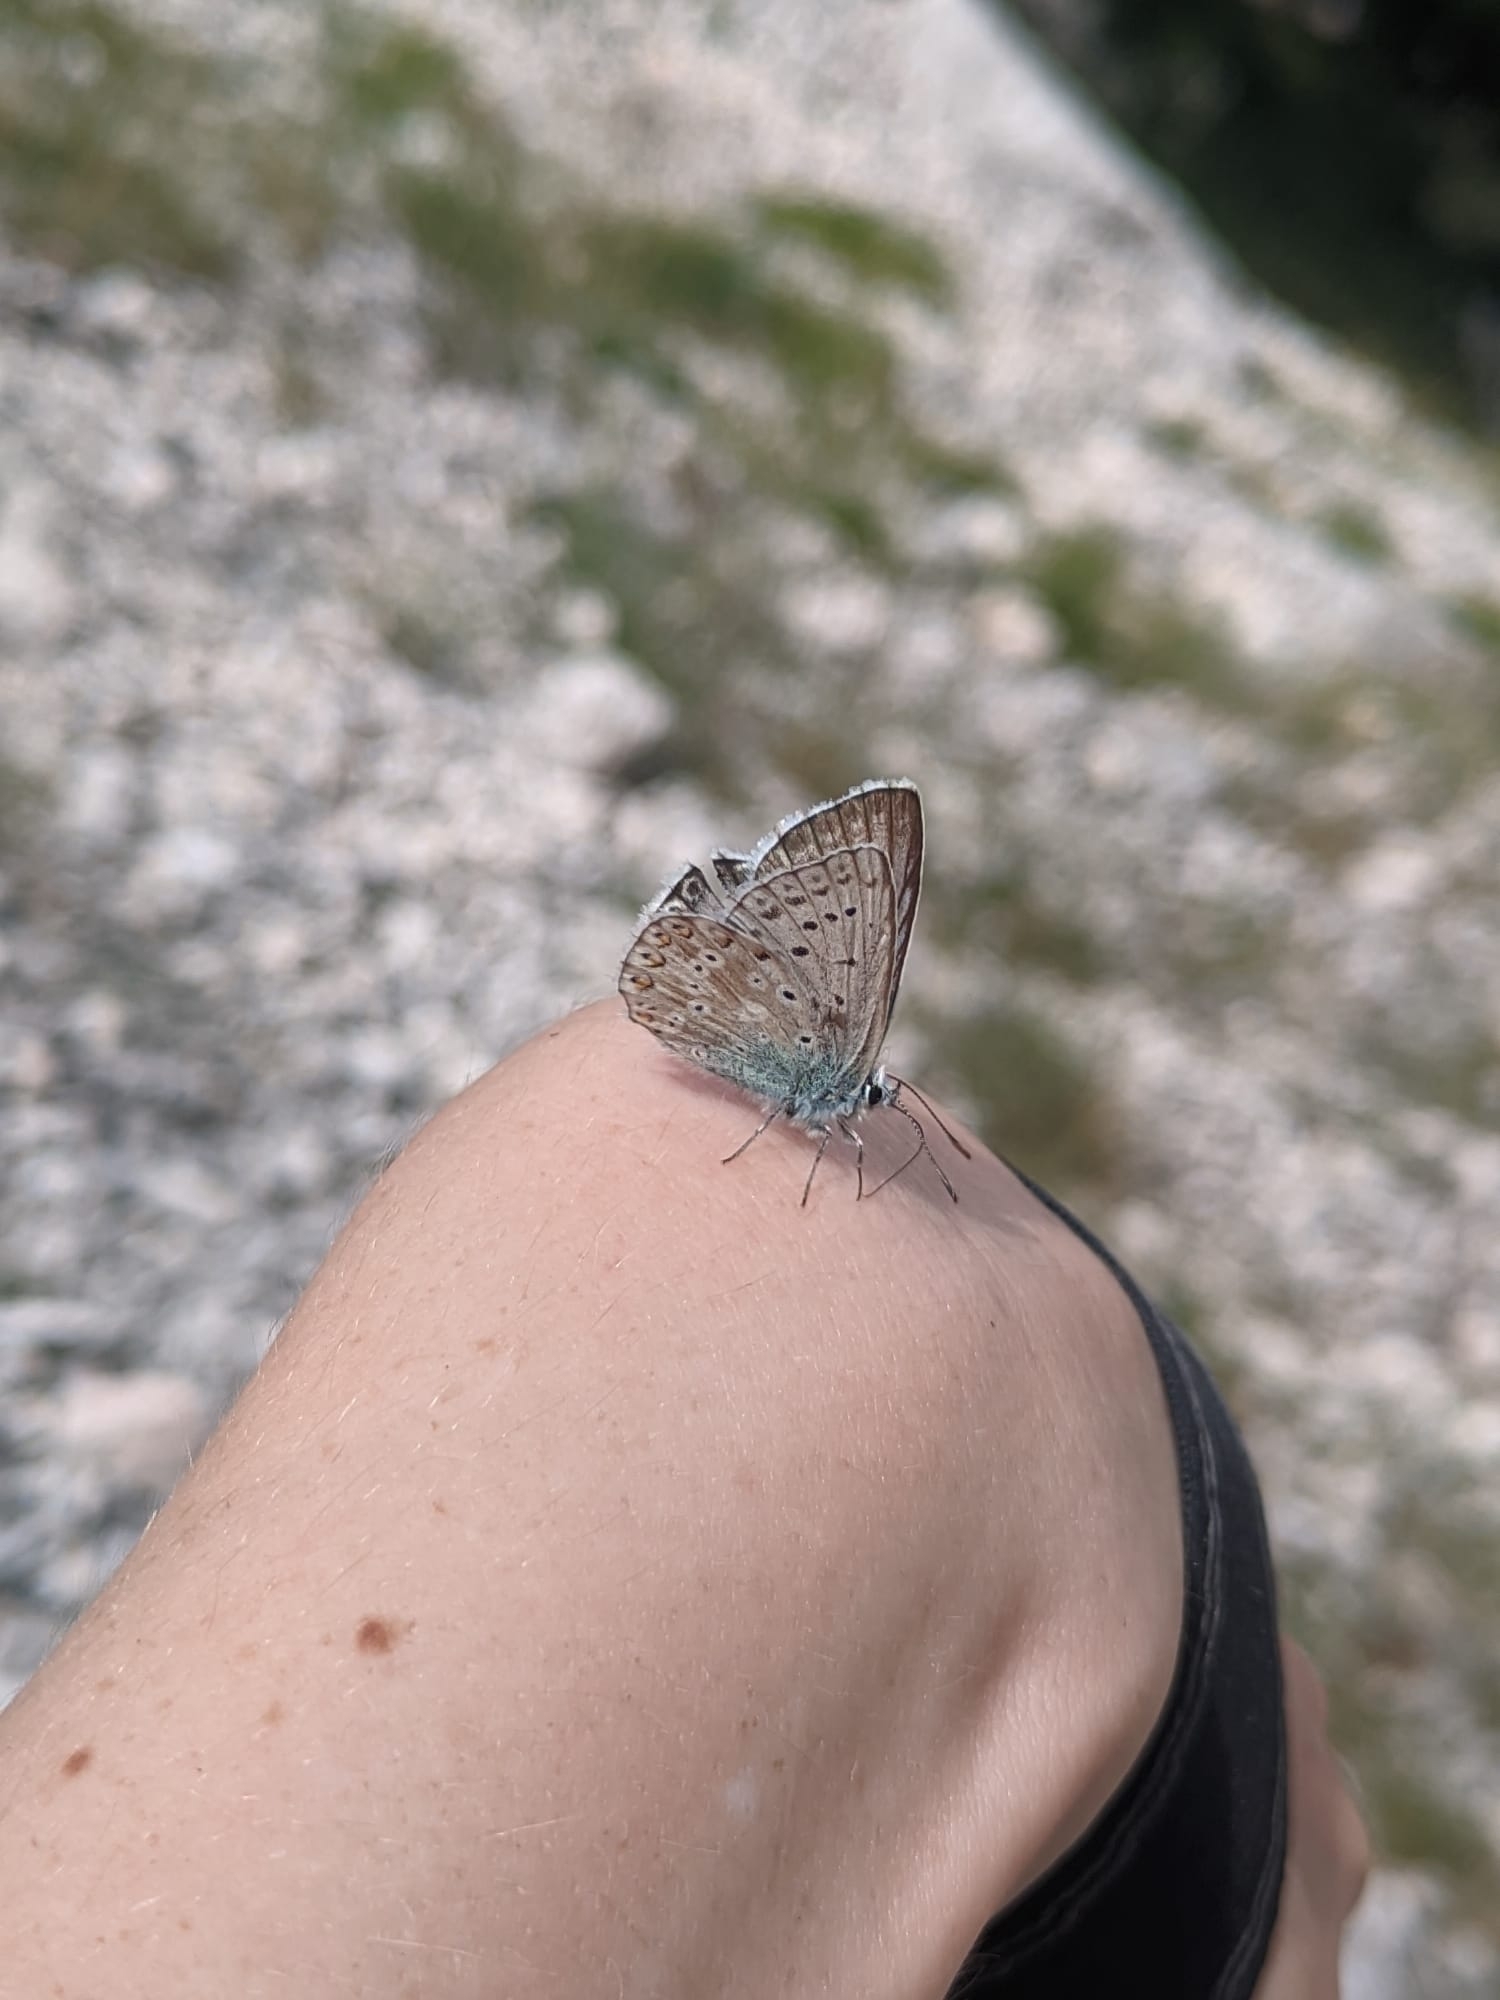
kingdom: Animalia
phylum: Arthropoda
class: Insecta
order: Lepidoptera
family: Lycaenidae
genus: Lysandra
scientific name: Lysandra coridon
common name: Chalkhill blue
